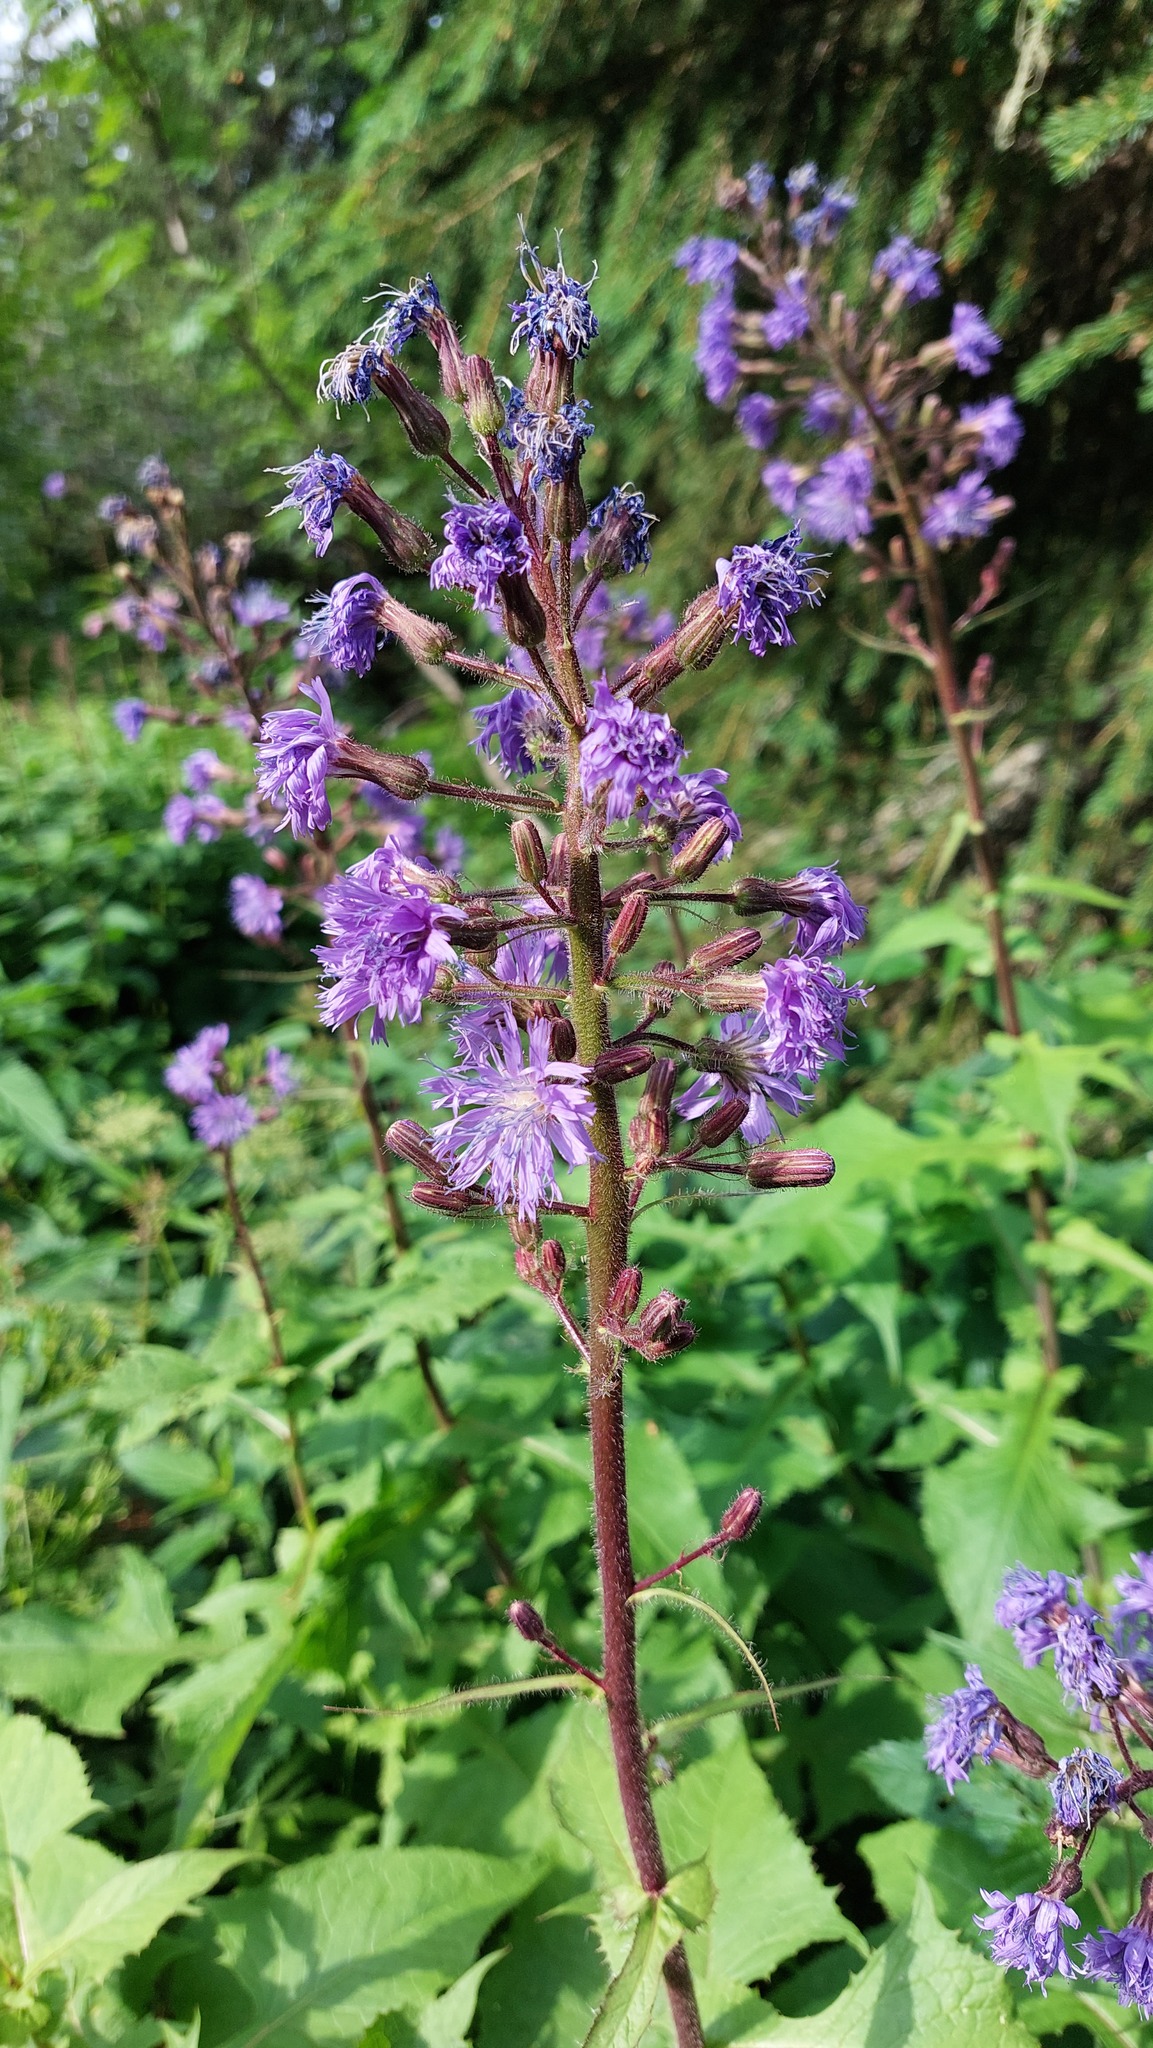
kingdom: Plantae
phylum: Tracheophyta
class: Magnoliopsida
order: Asterales
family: Asteraceae
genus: Cicerbita
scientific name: Cicerbita alpina
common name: Alpine blue-sow-thistle
